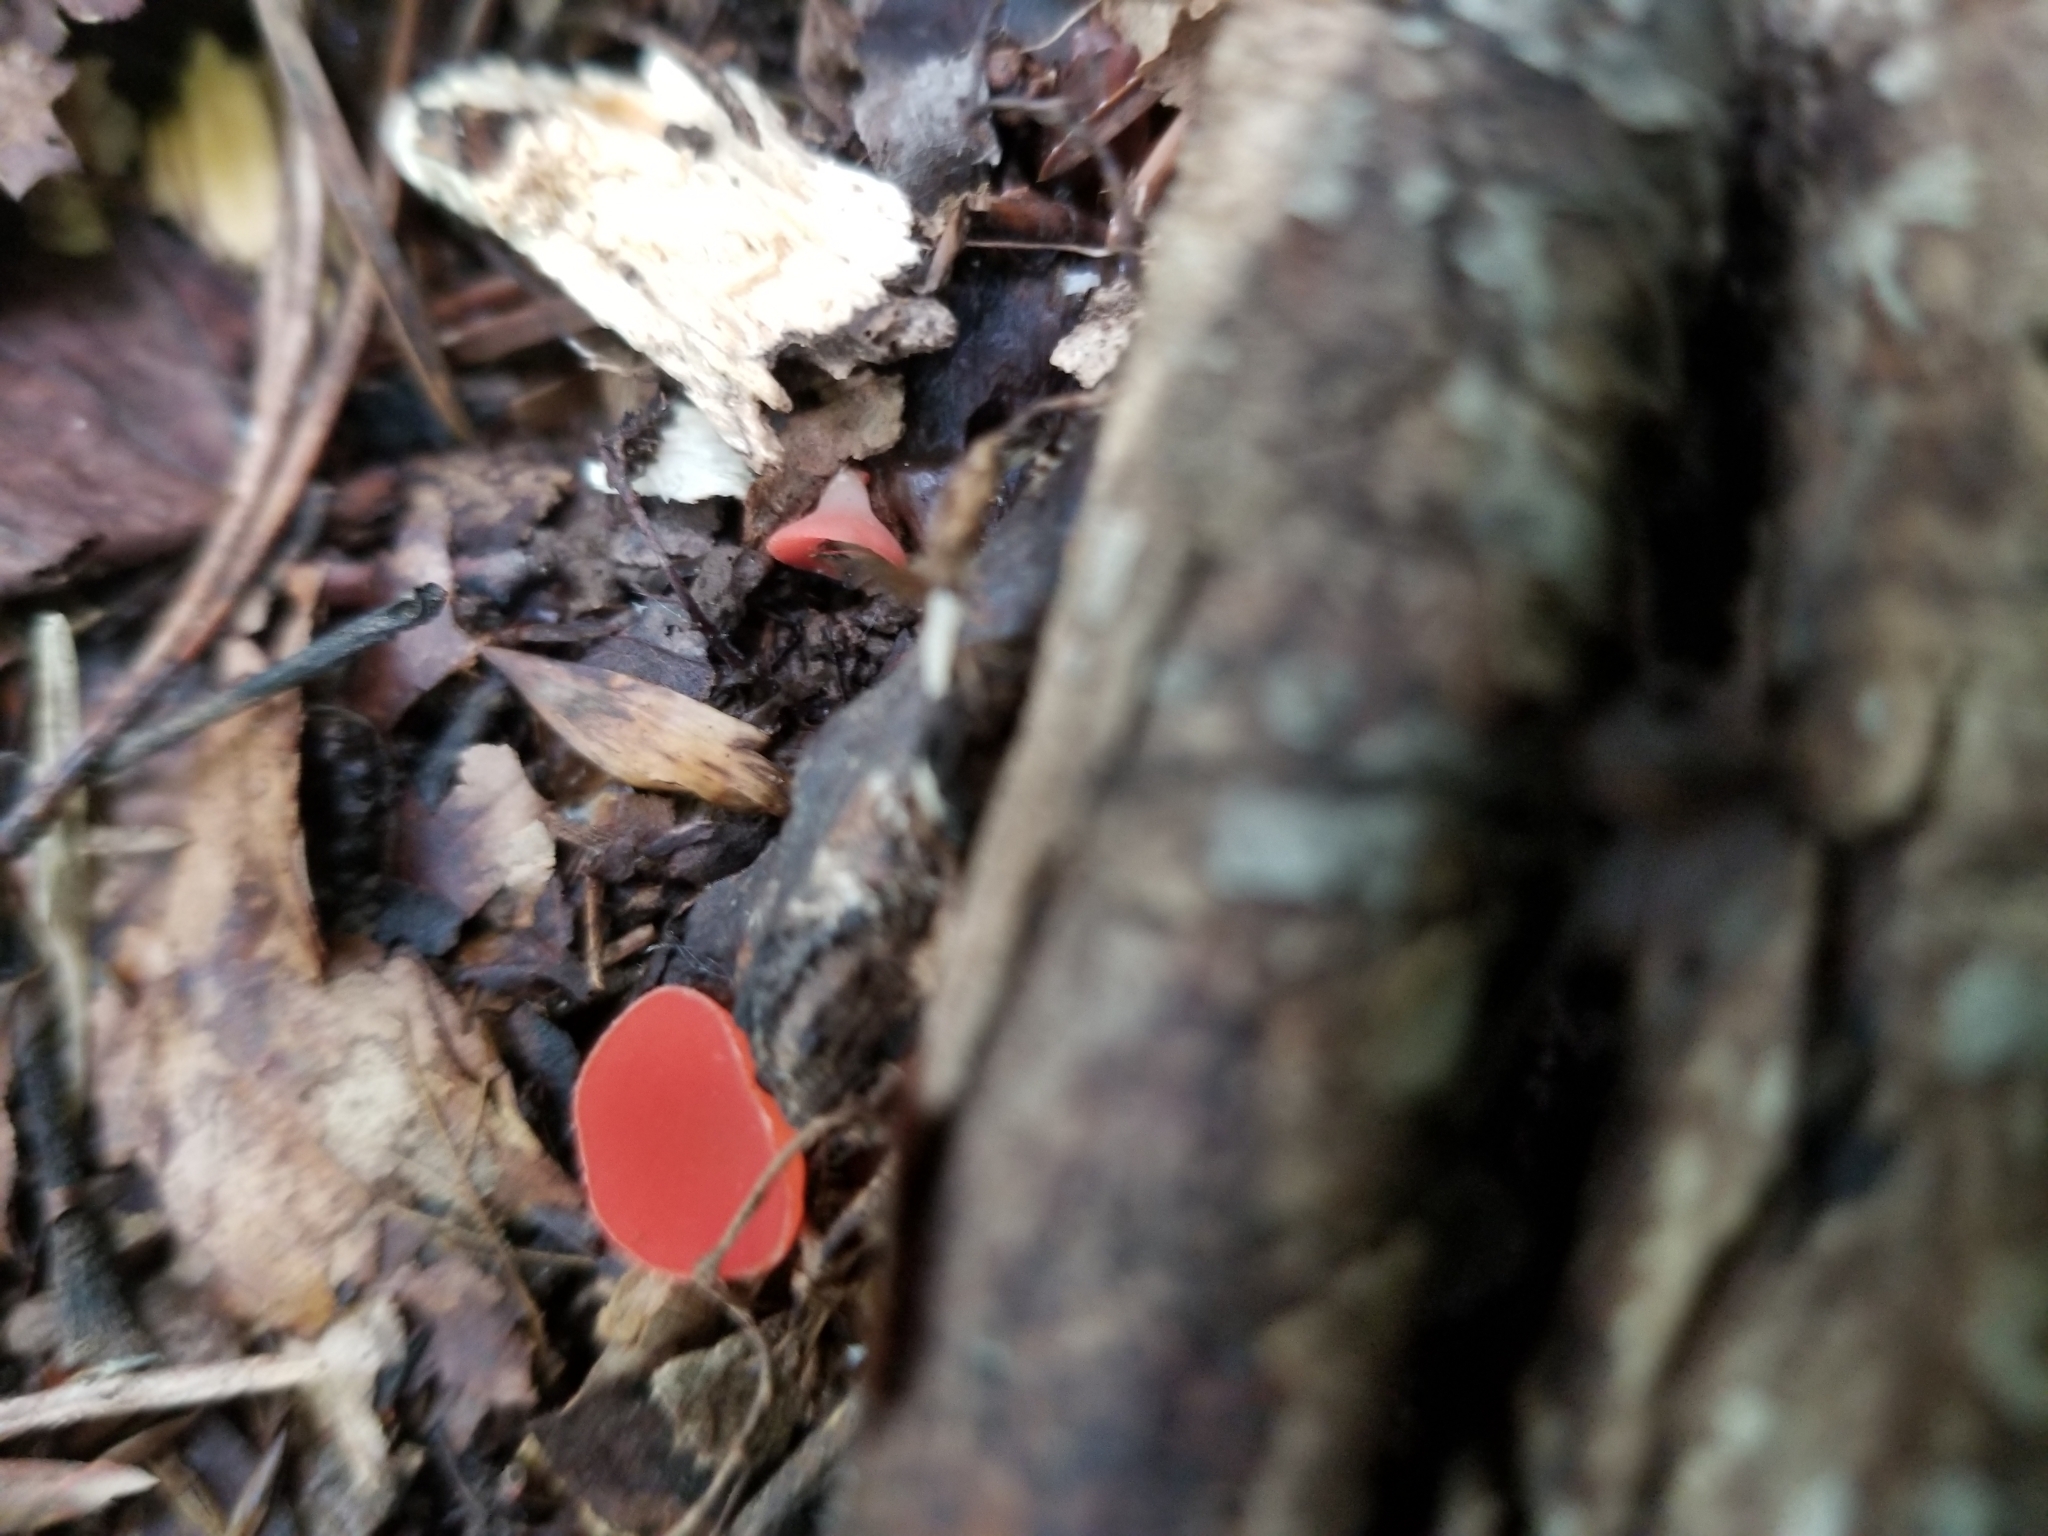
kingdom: Fungi
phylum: Ascomycota
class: Pezizomycetes
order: Pezizales
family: Sarcoscyphaceae
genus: Sarcoscypha
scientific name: Sarcoscypha occidentalis
